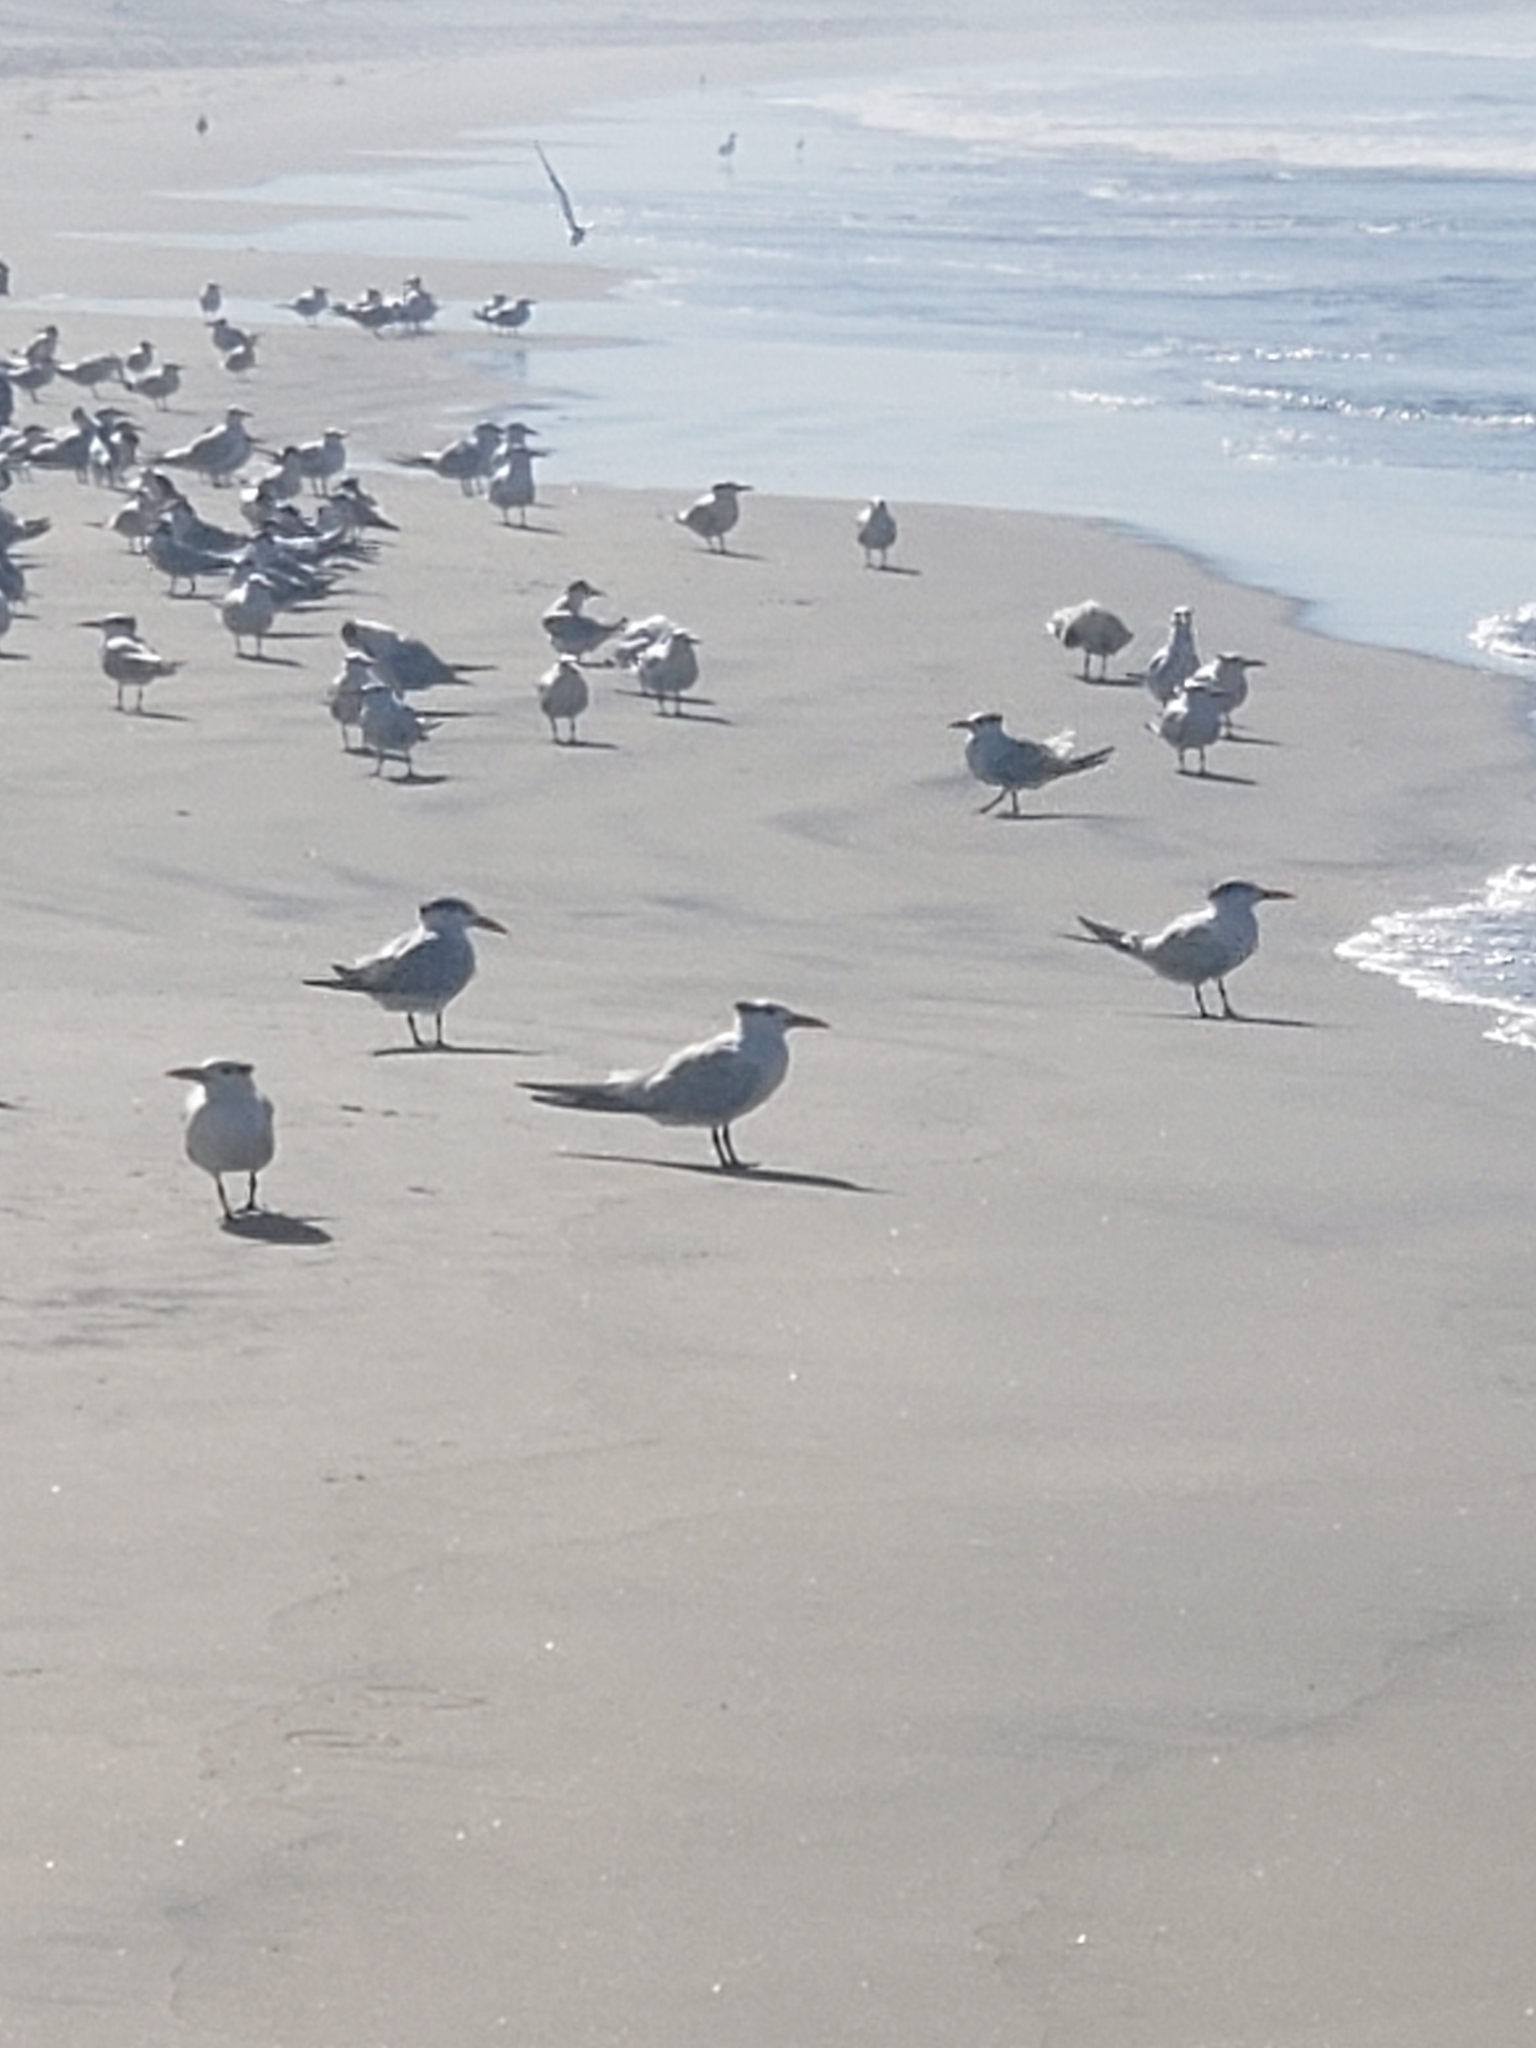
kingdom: Animalia
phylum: Chordata
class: Aves
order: Charadriiformes
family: Laridae
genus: Thalasseus
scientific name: Thalasseus maximus
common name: Royal tern
